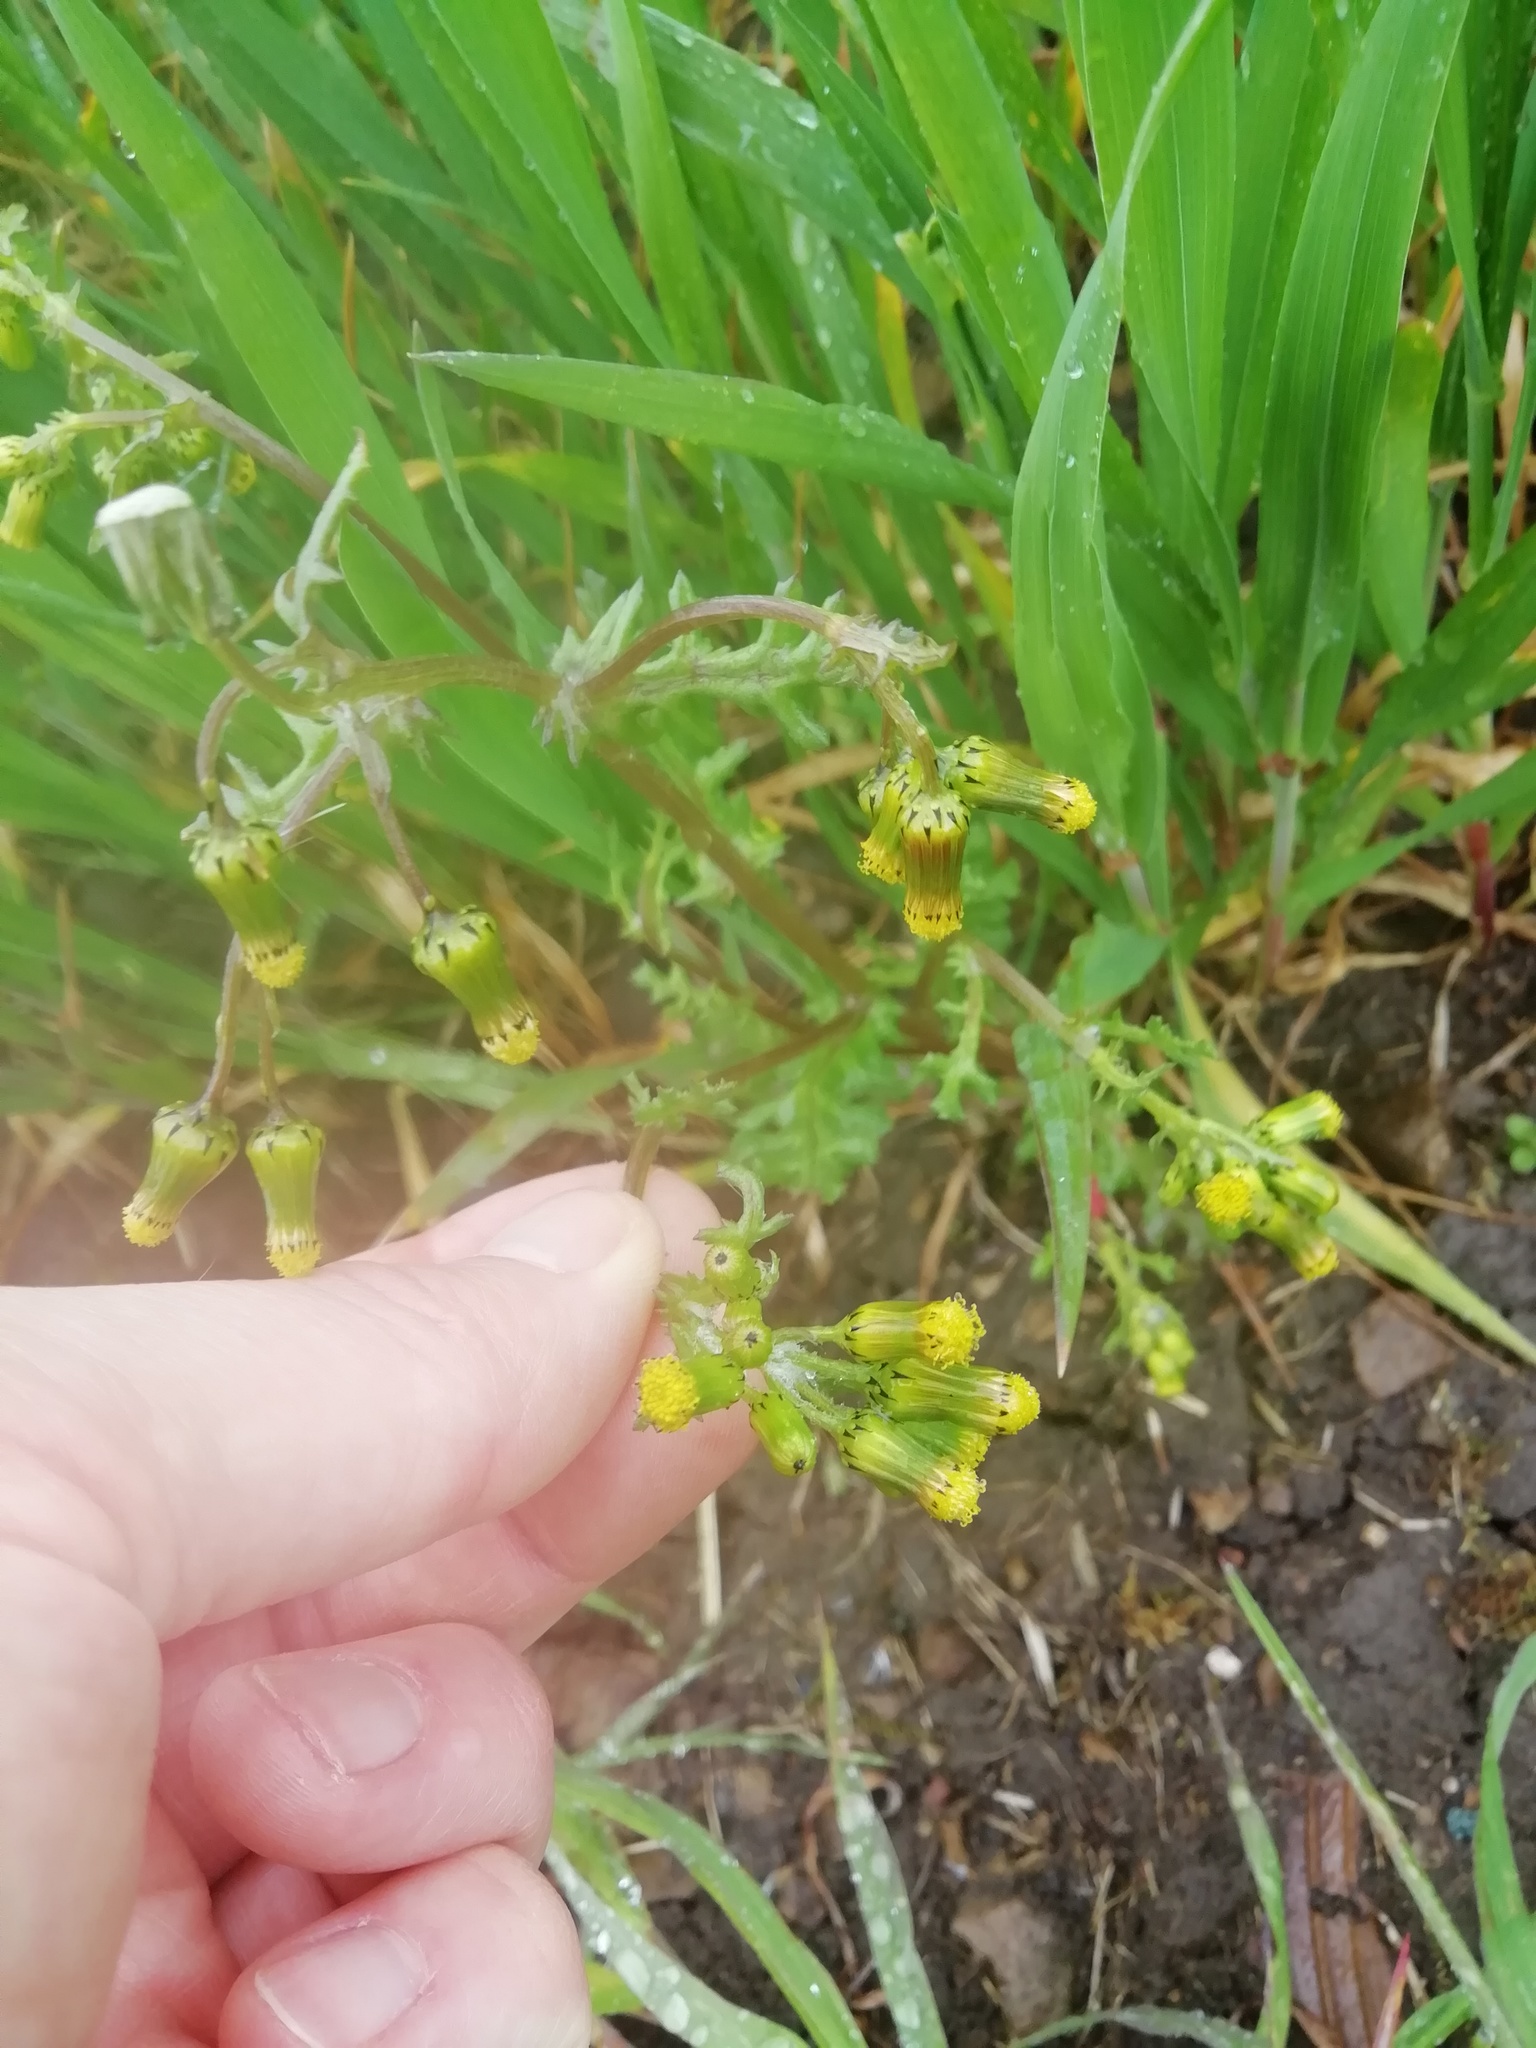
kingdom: Plantae
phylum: Tracheophyta
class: Magnoliopsida
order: Asterales
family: Asteraceae
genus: Senecio
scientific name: Senecio vulgaris
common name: Old-man-in-the-spring
